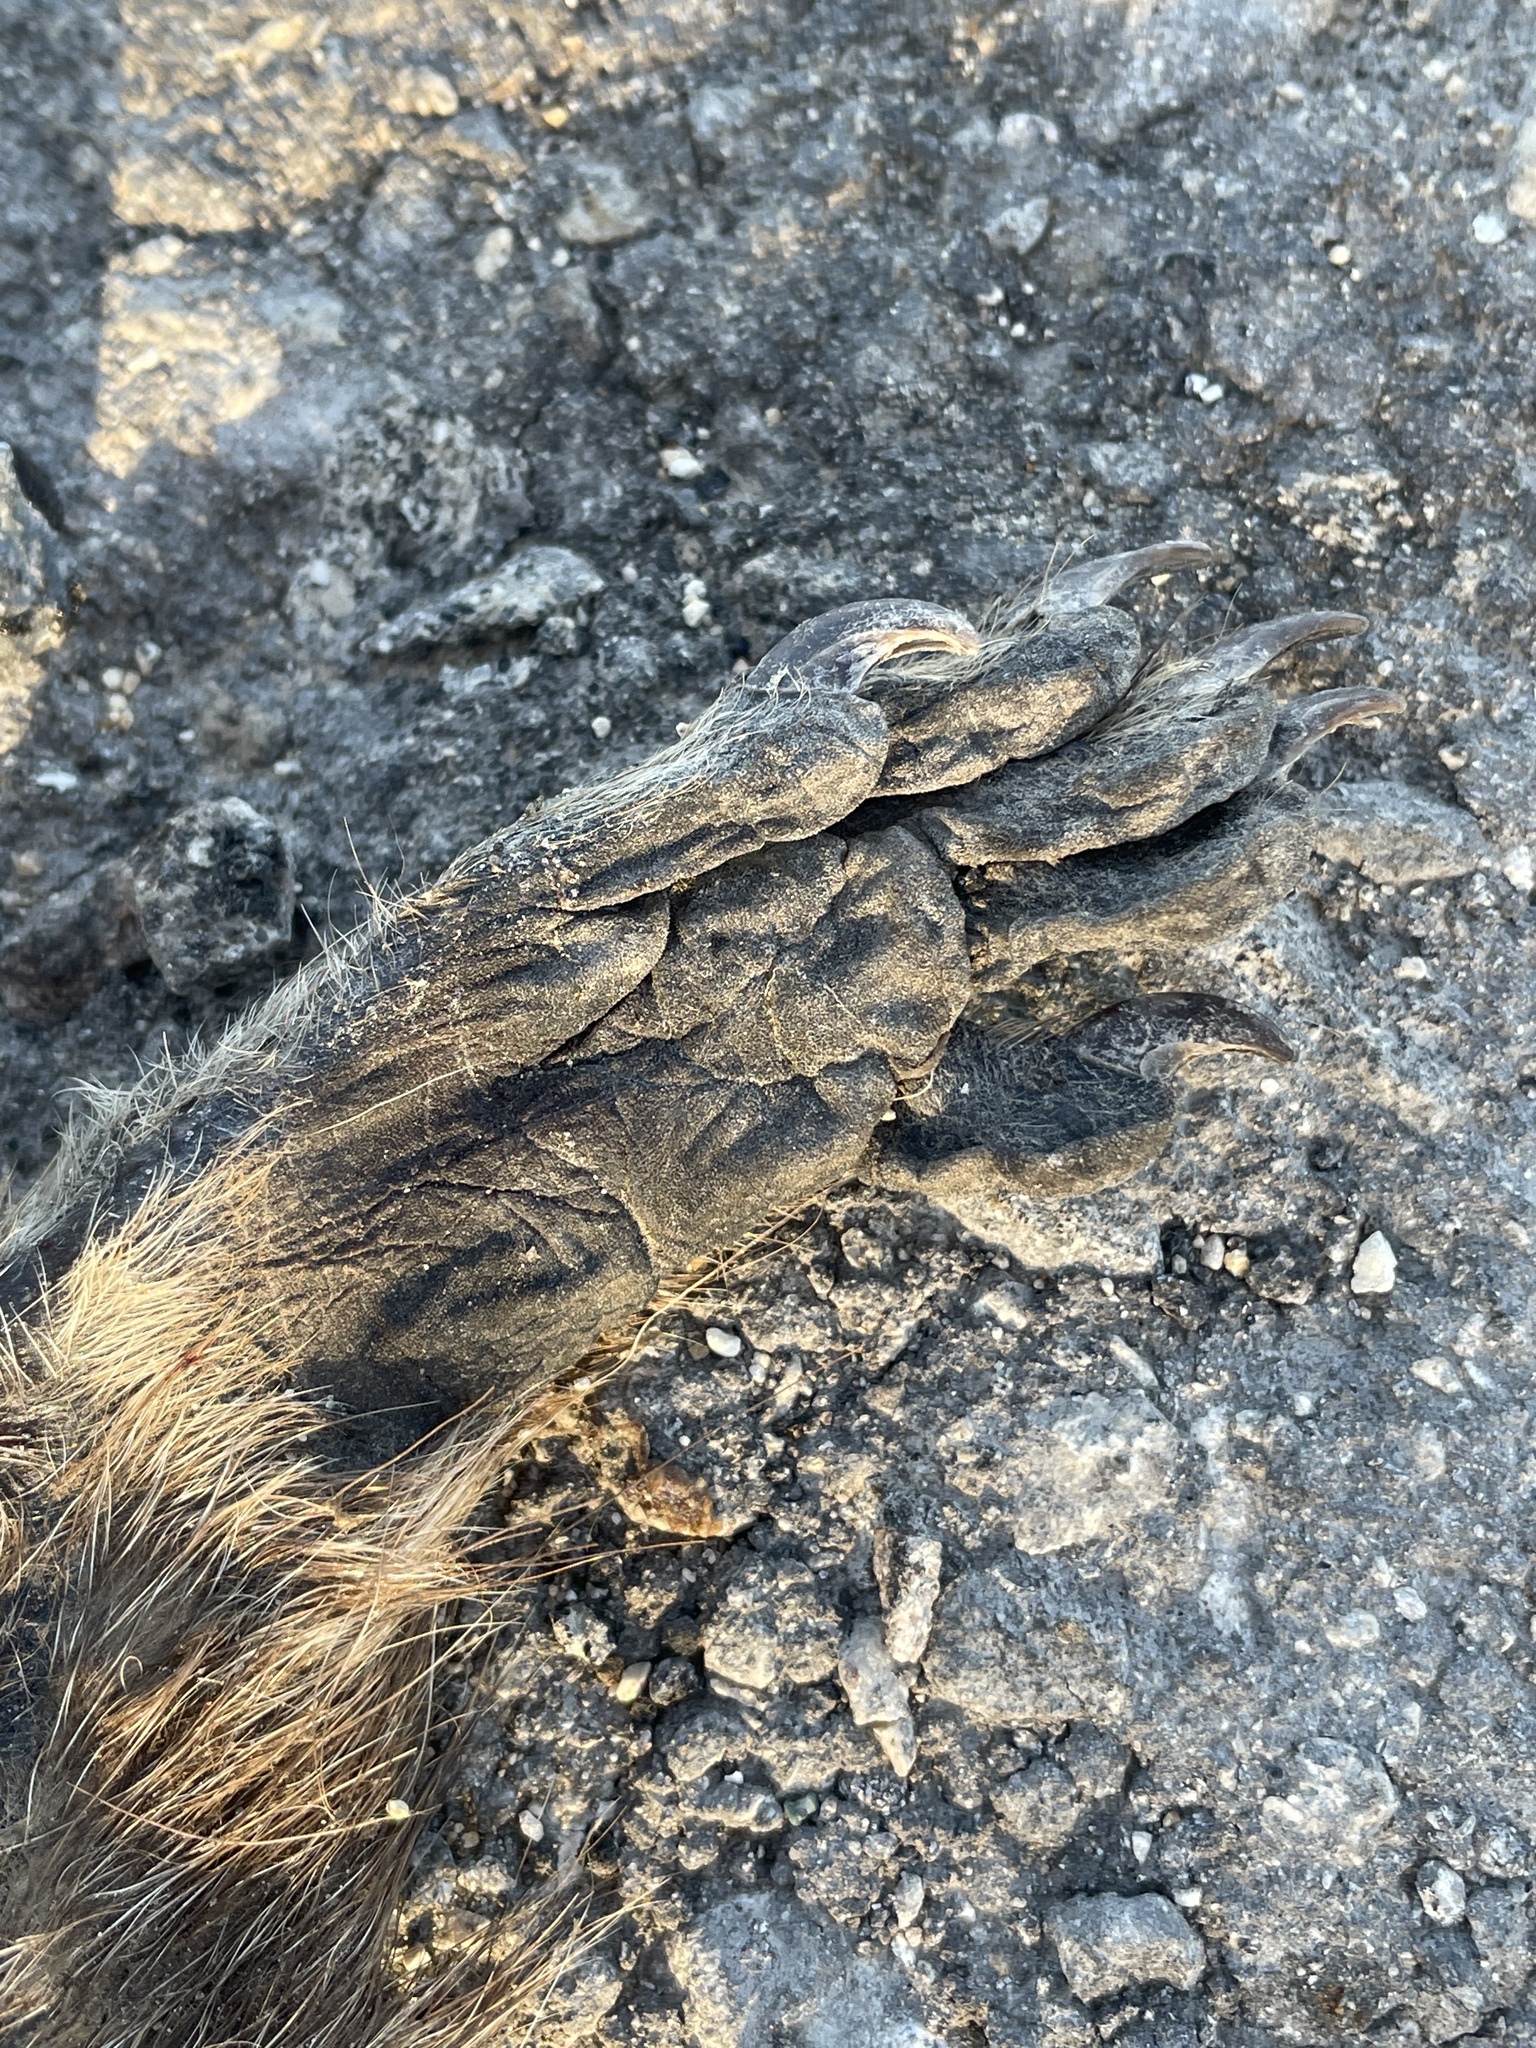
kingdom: Animalia
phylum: Chordata
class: Mammalia
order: Carnivora
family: Procyonidae
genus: Procyon
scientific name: Procyon lotor
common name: Raccoon
